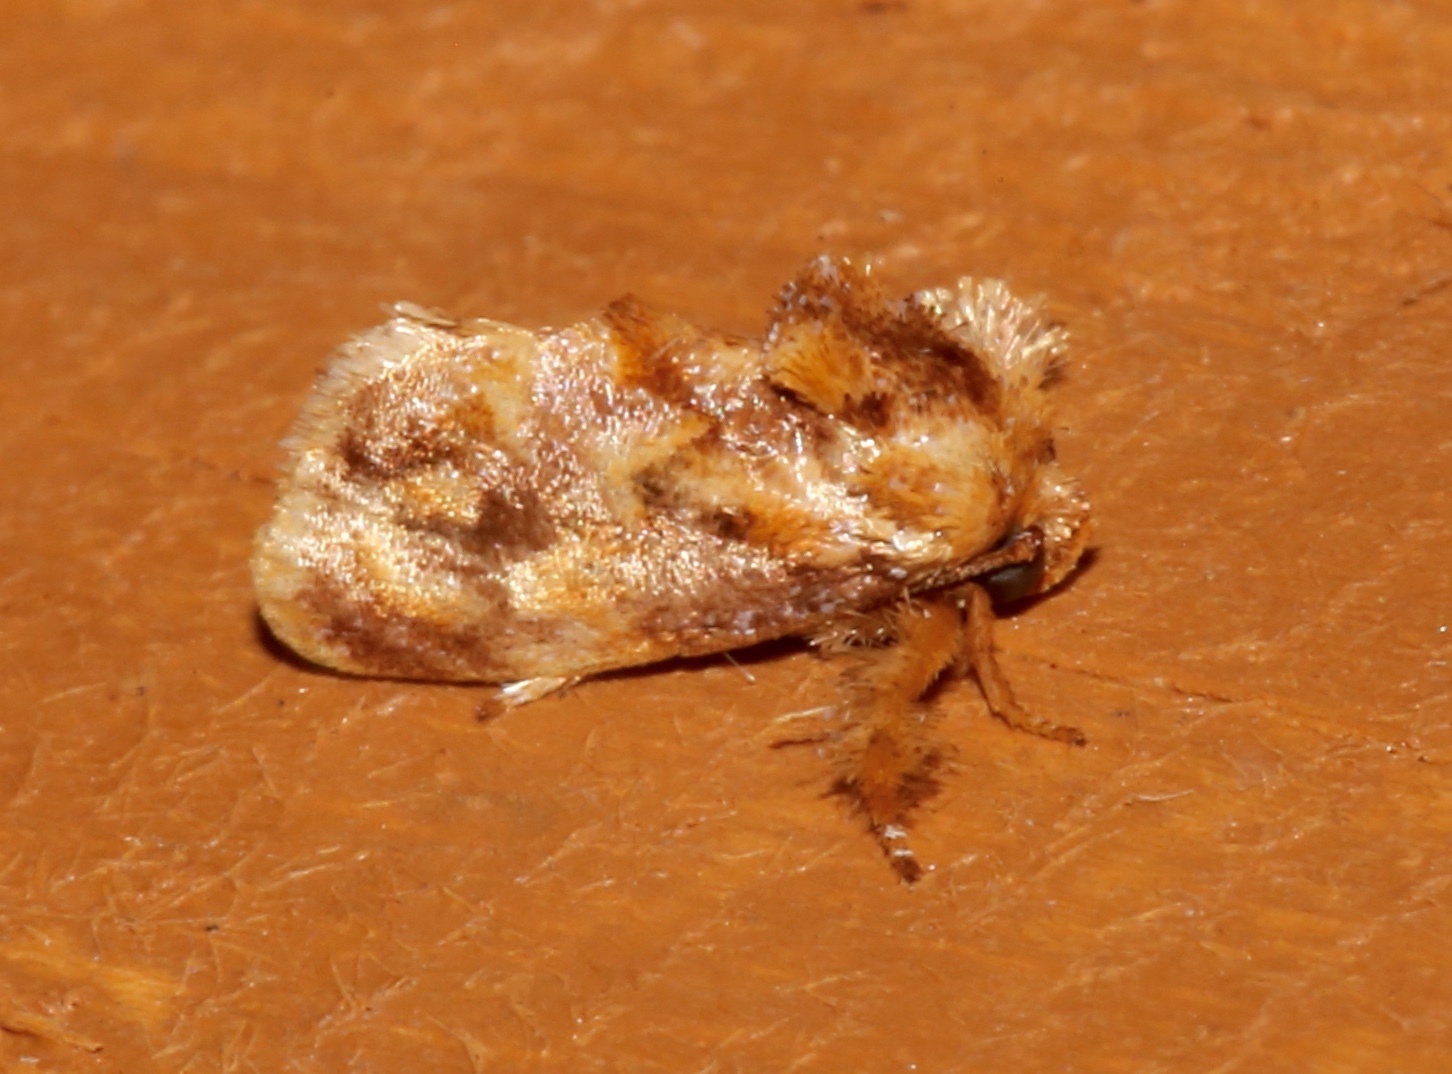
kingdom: Animalia
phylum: Arthropoda
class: Insecta
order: Lepidoptera
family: Limacodidae
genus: Isochaetes
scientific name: Isochaetes beutenmuelleri
